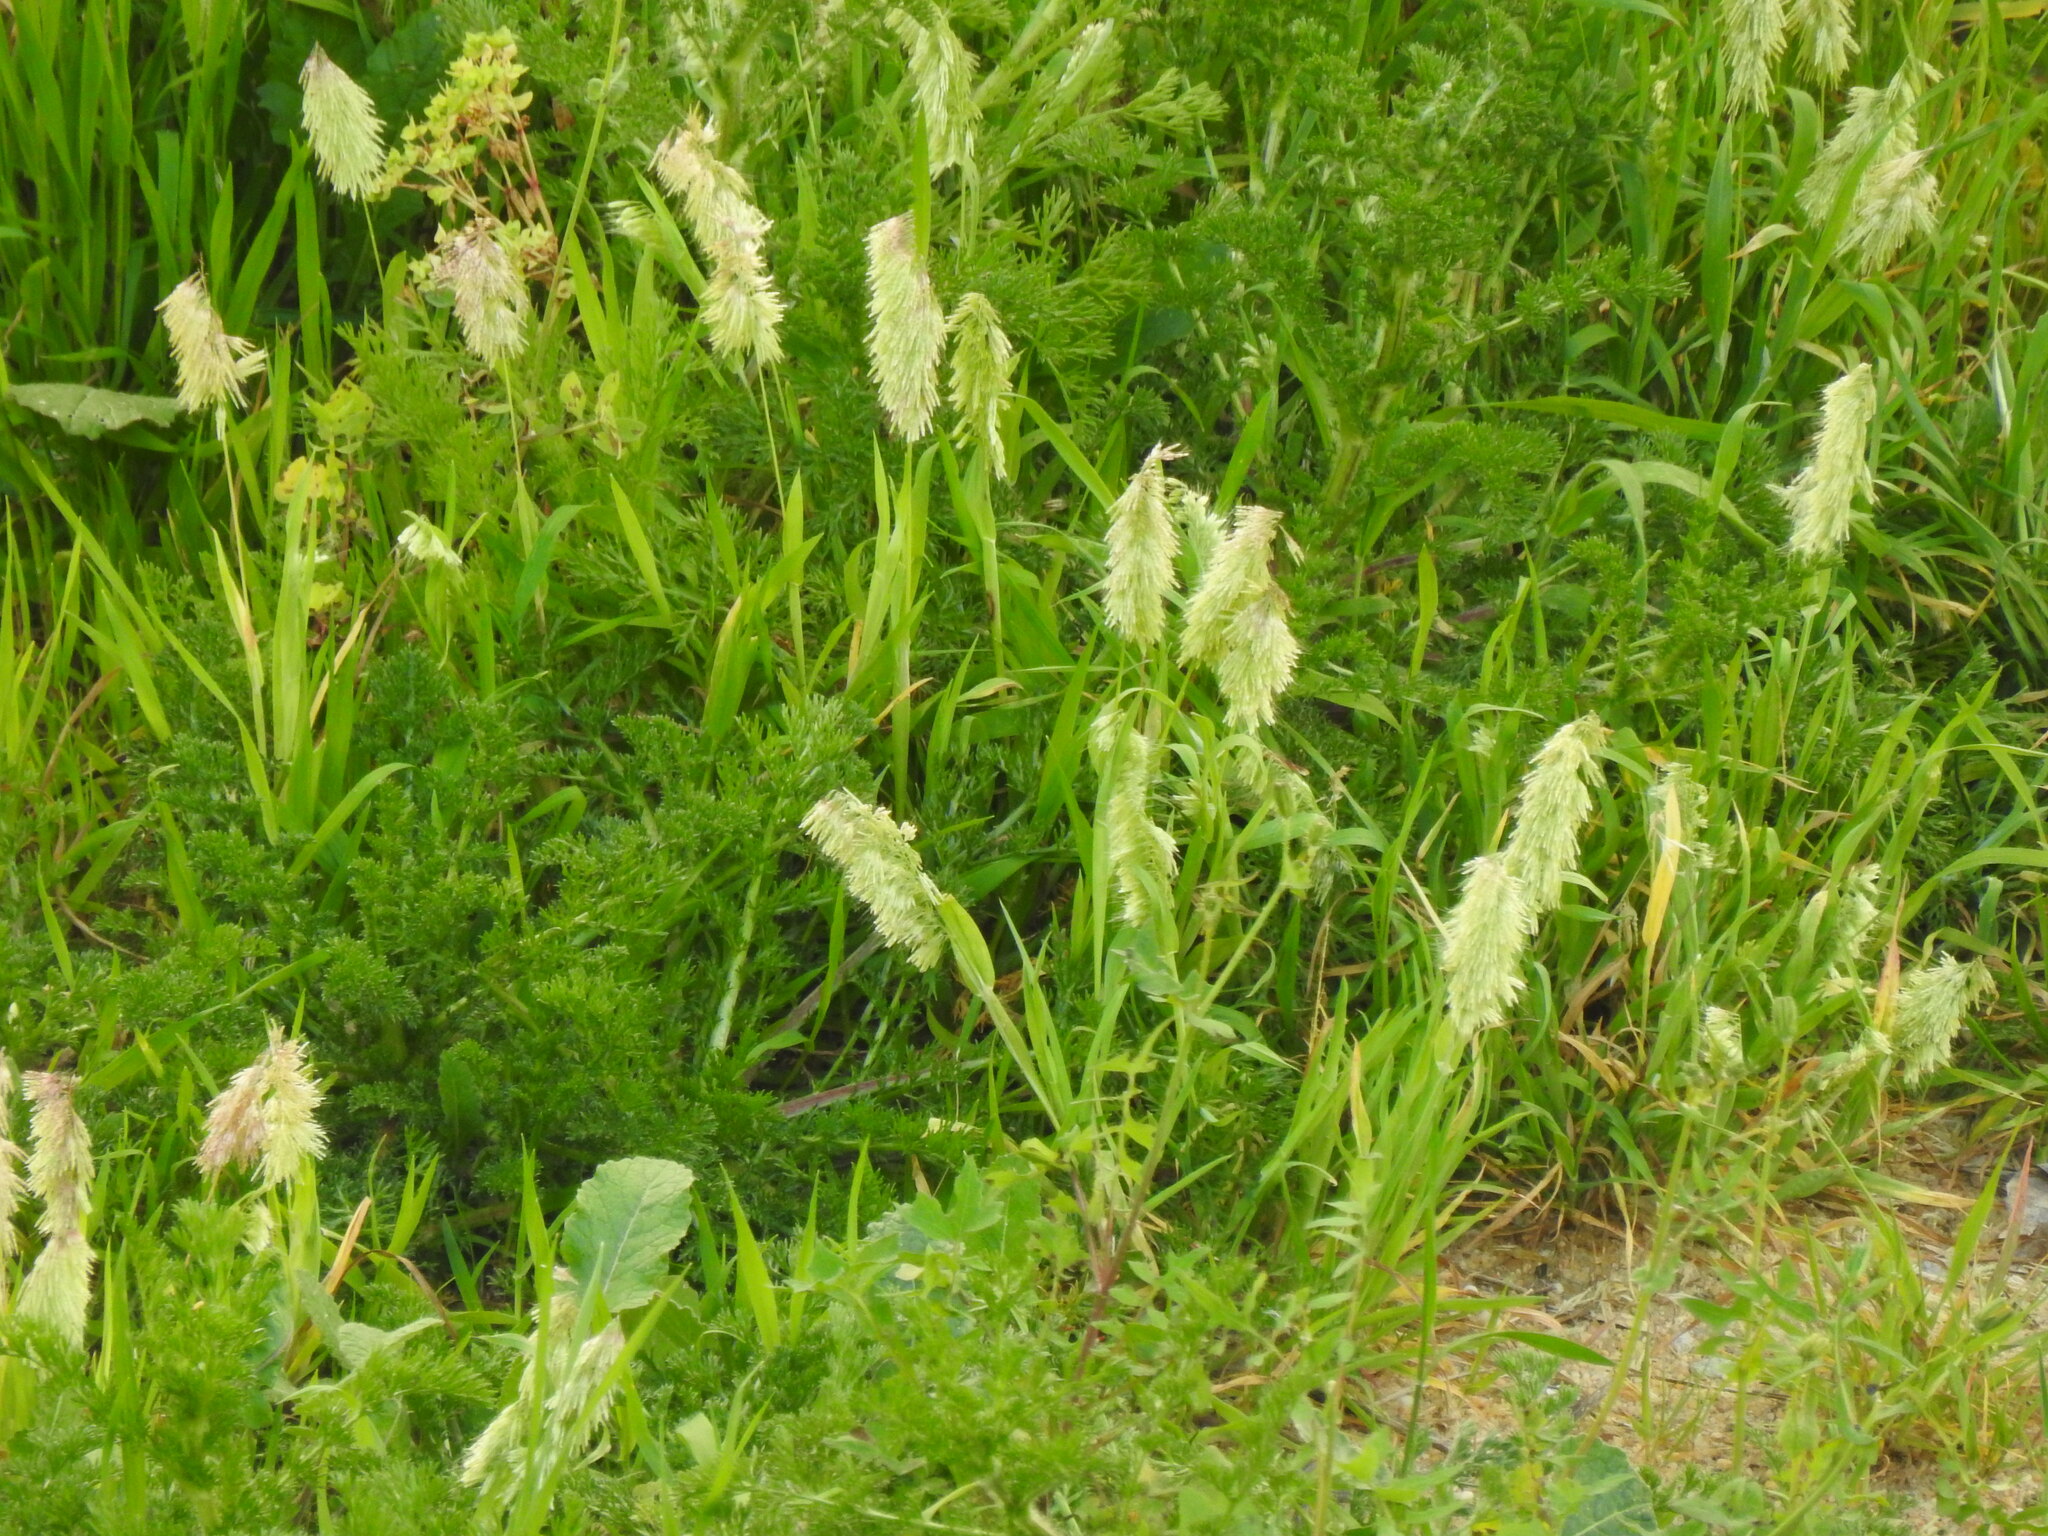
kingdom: Plantae
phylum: Tracheophyta
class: Liliopsida
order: Poales
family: Poaceae
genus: Lamarckia
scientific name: Lamarckia aurea
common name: Golden dog's-tail
